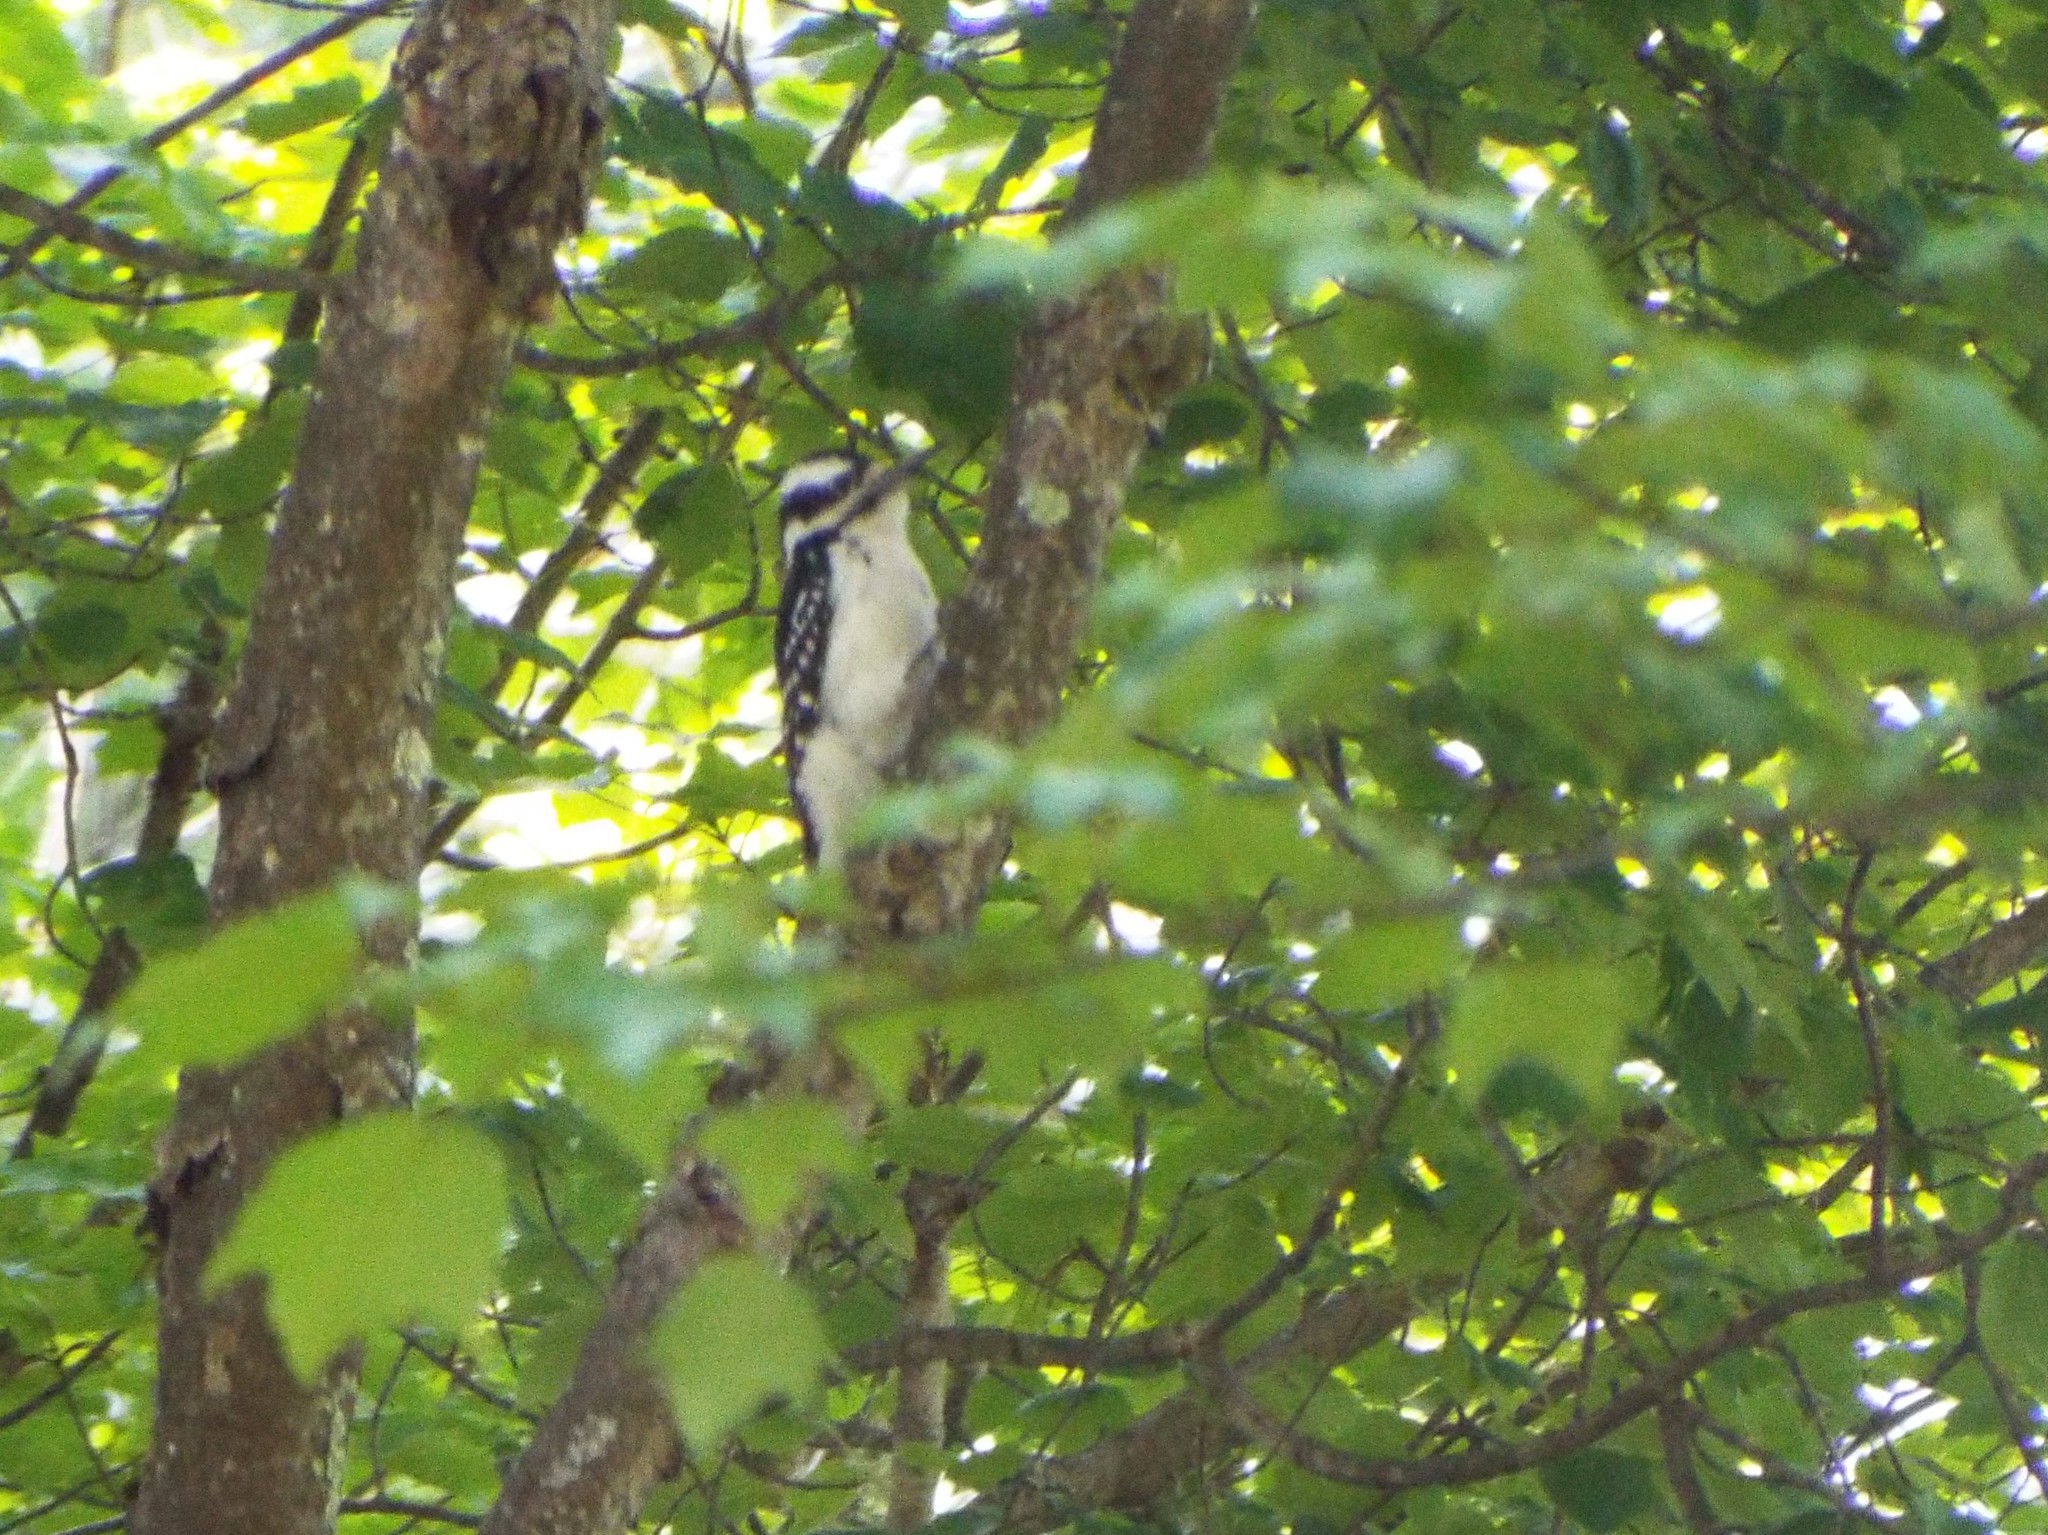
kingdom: Animalia
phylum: Chordata
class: Aves
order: Piciformes
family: Picidae
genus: Leuconotopicus
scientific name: Leuconotopicus villosus
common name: Hairy woodpecker
